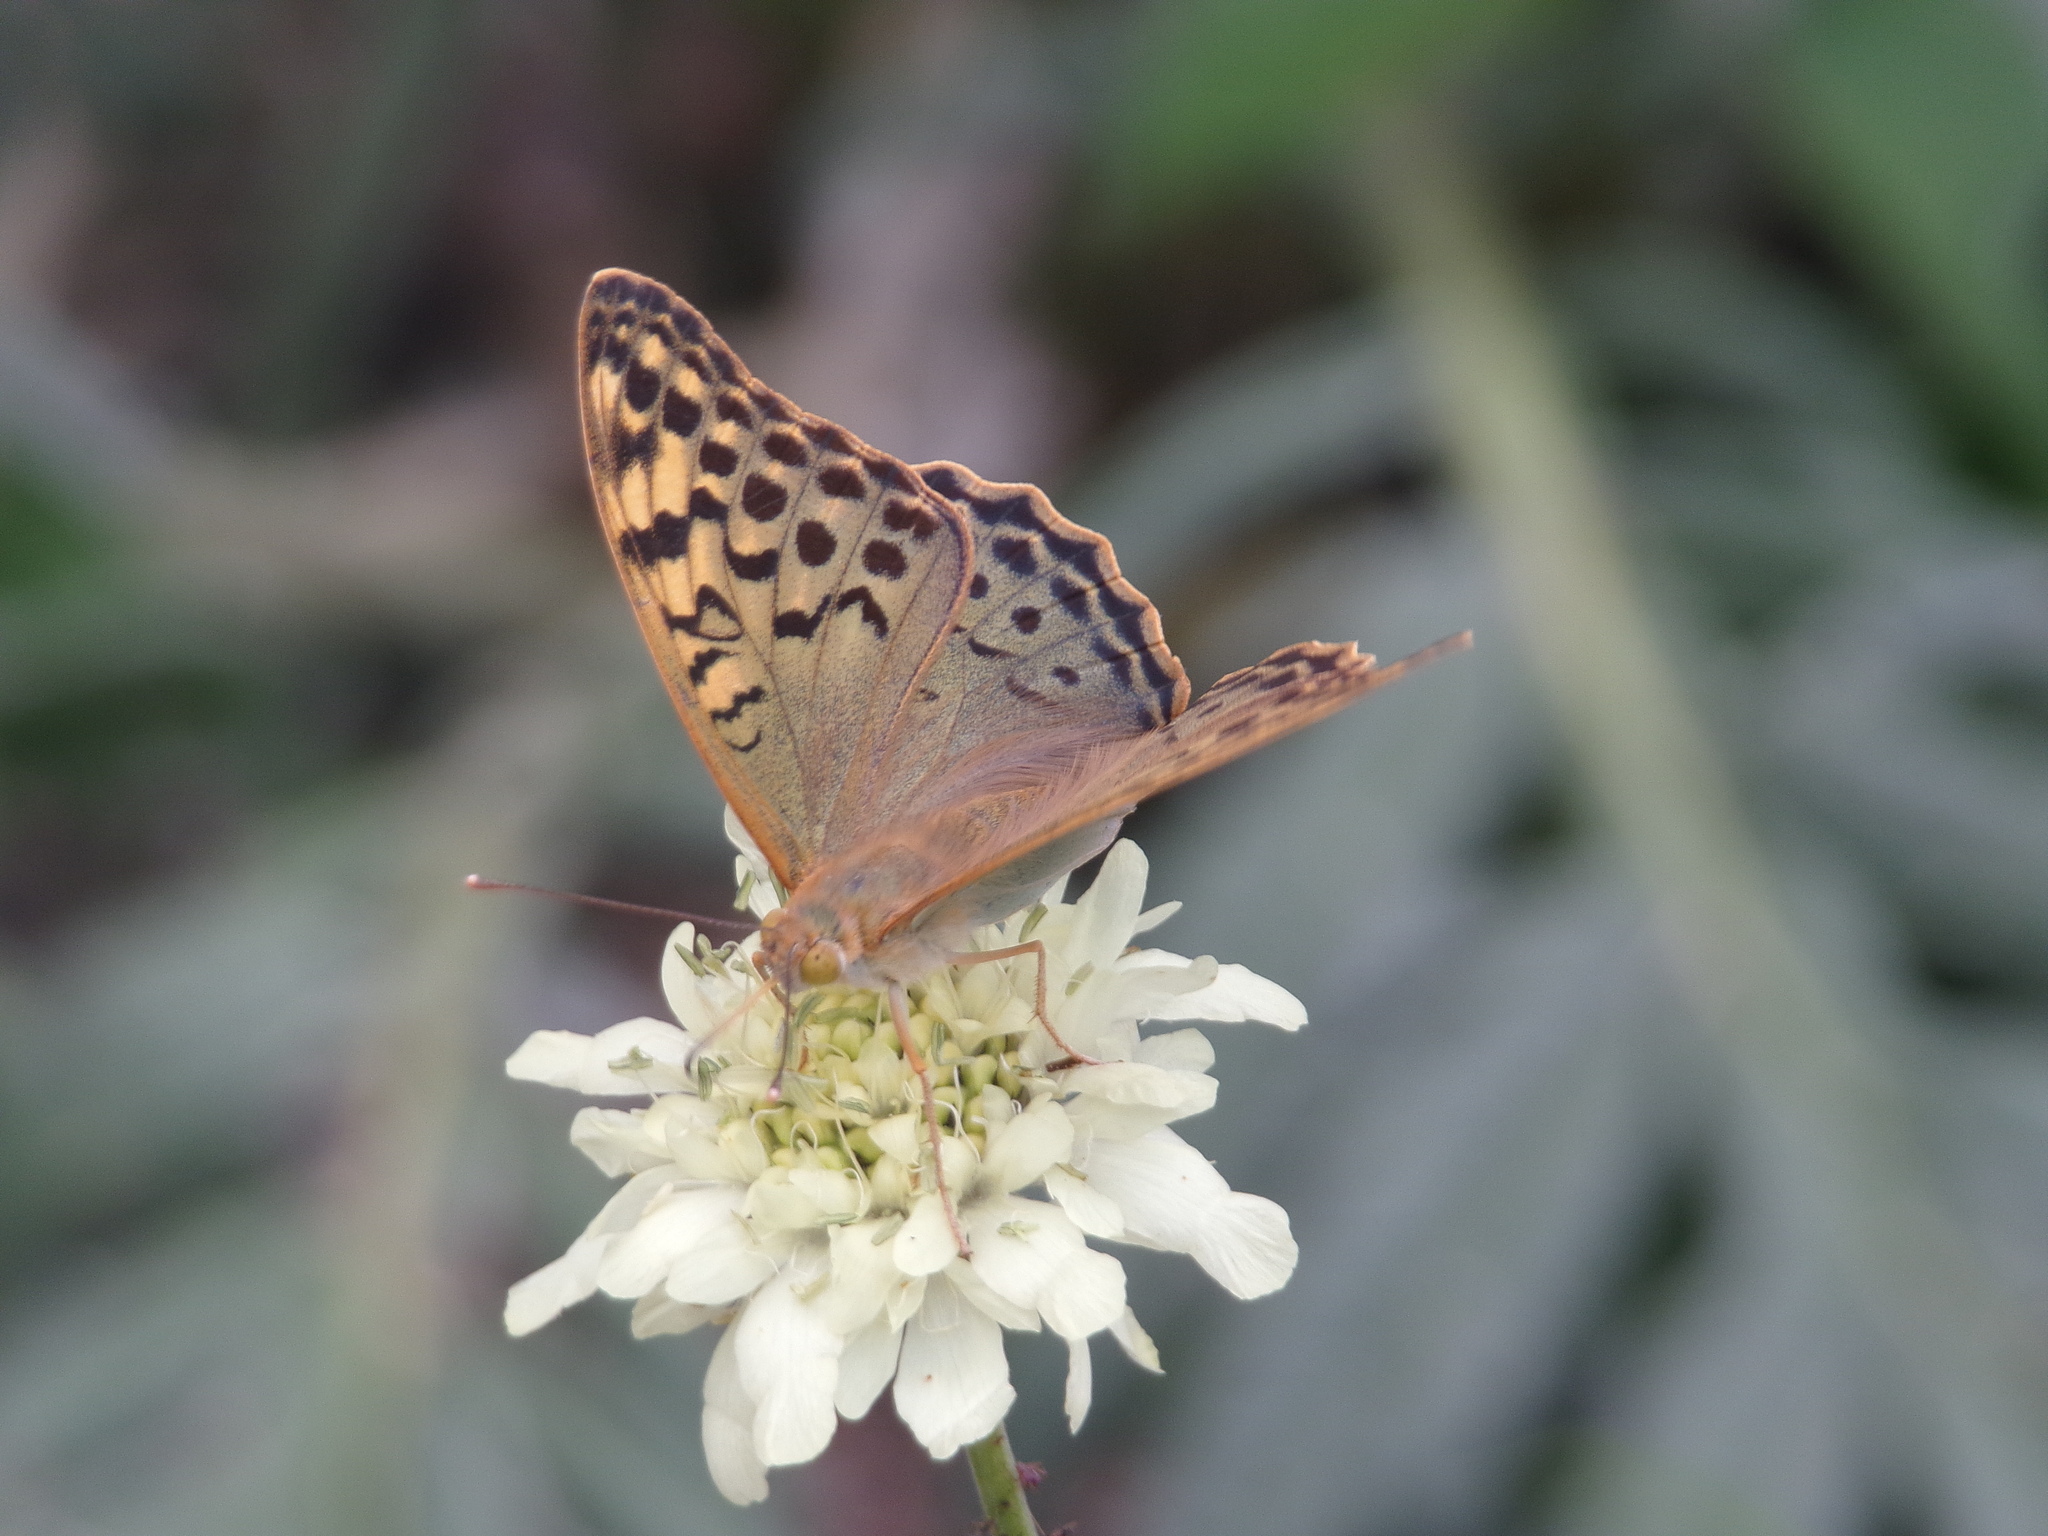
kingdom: Animalia
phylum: Arthropoda
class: Insecta
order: Lepidoptera
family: Nymphalidae
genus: Damora
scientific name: Damora pandora
